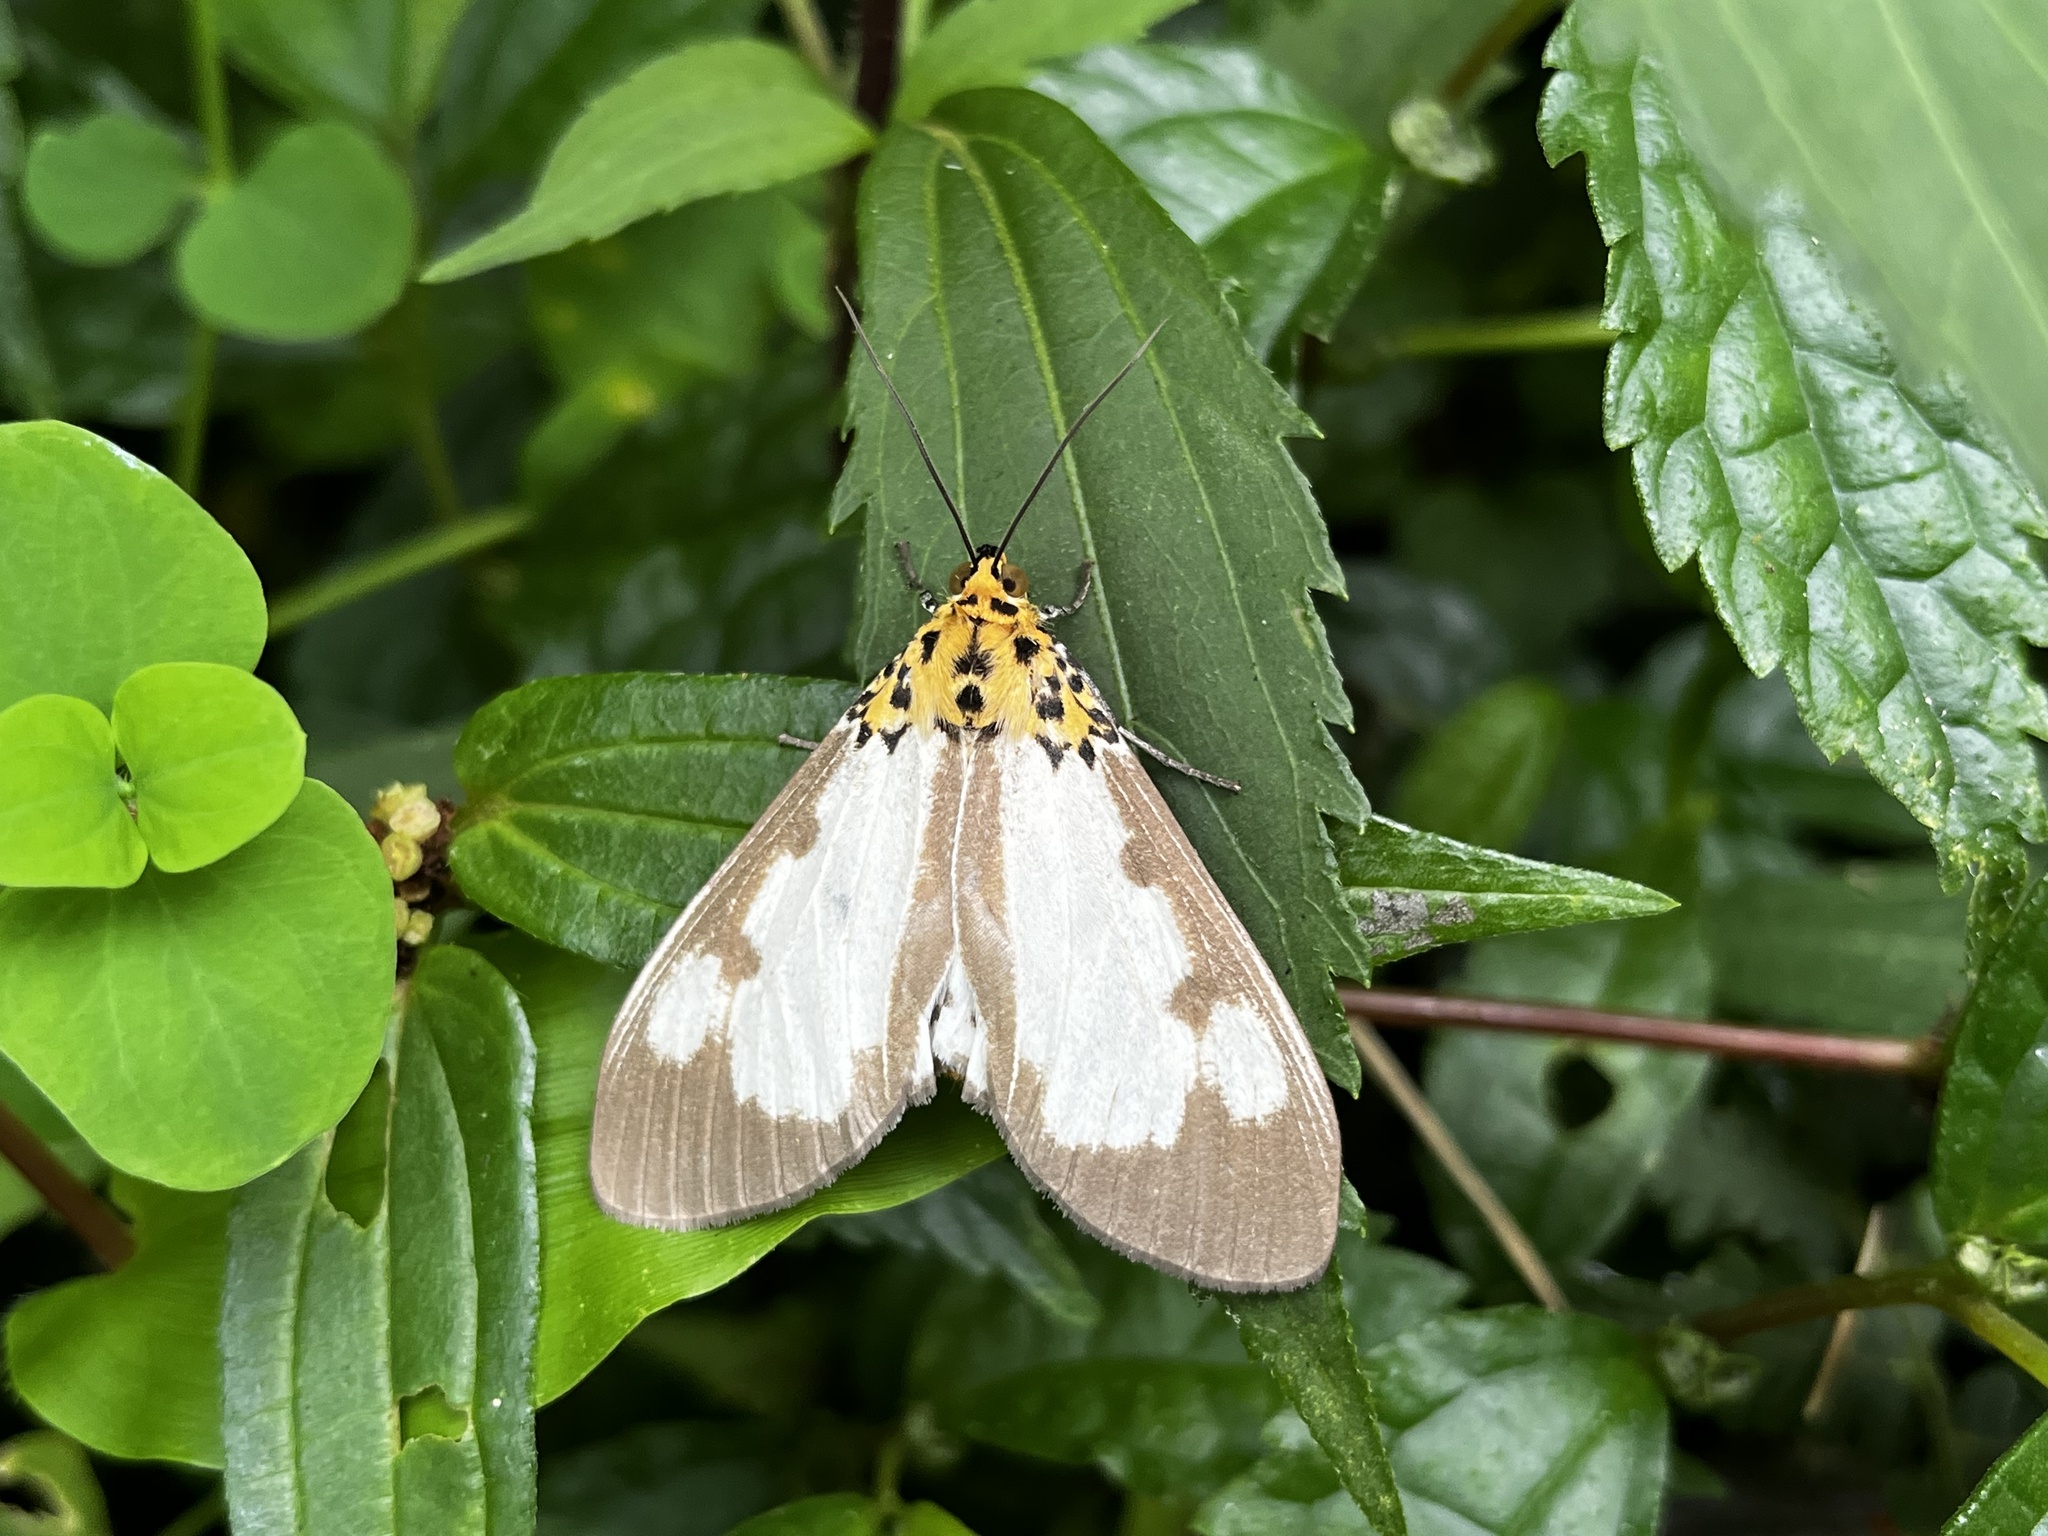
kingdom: Animalia
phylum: Arthropoda
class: Insecta
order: Lepidoptera
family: Erebidae
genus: Asota
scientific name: Asota plana
